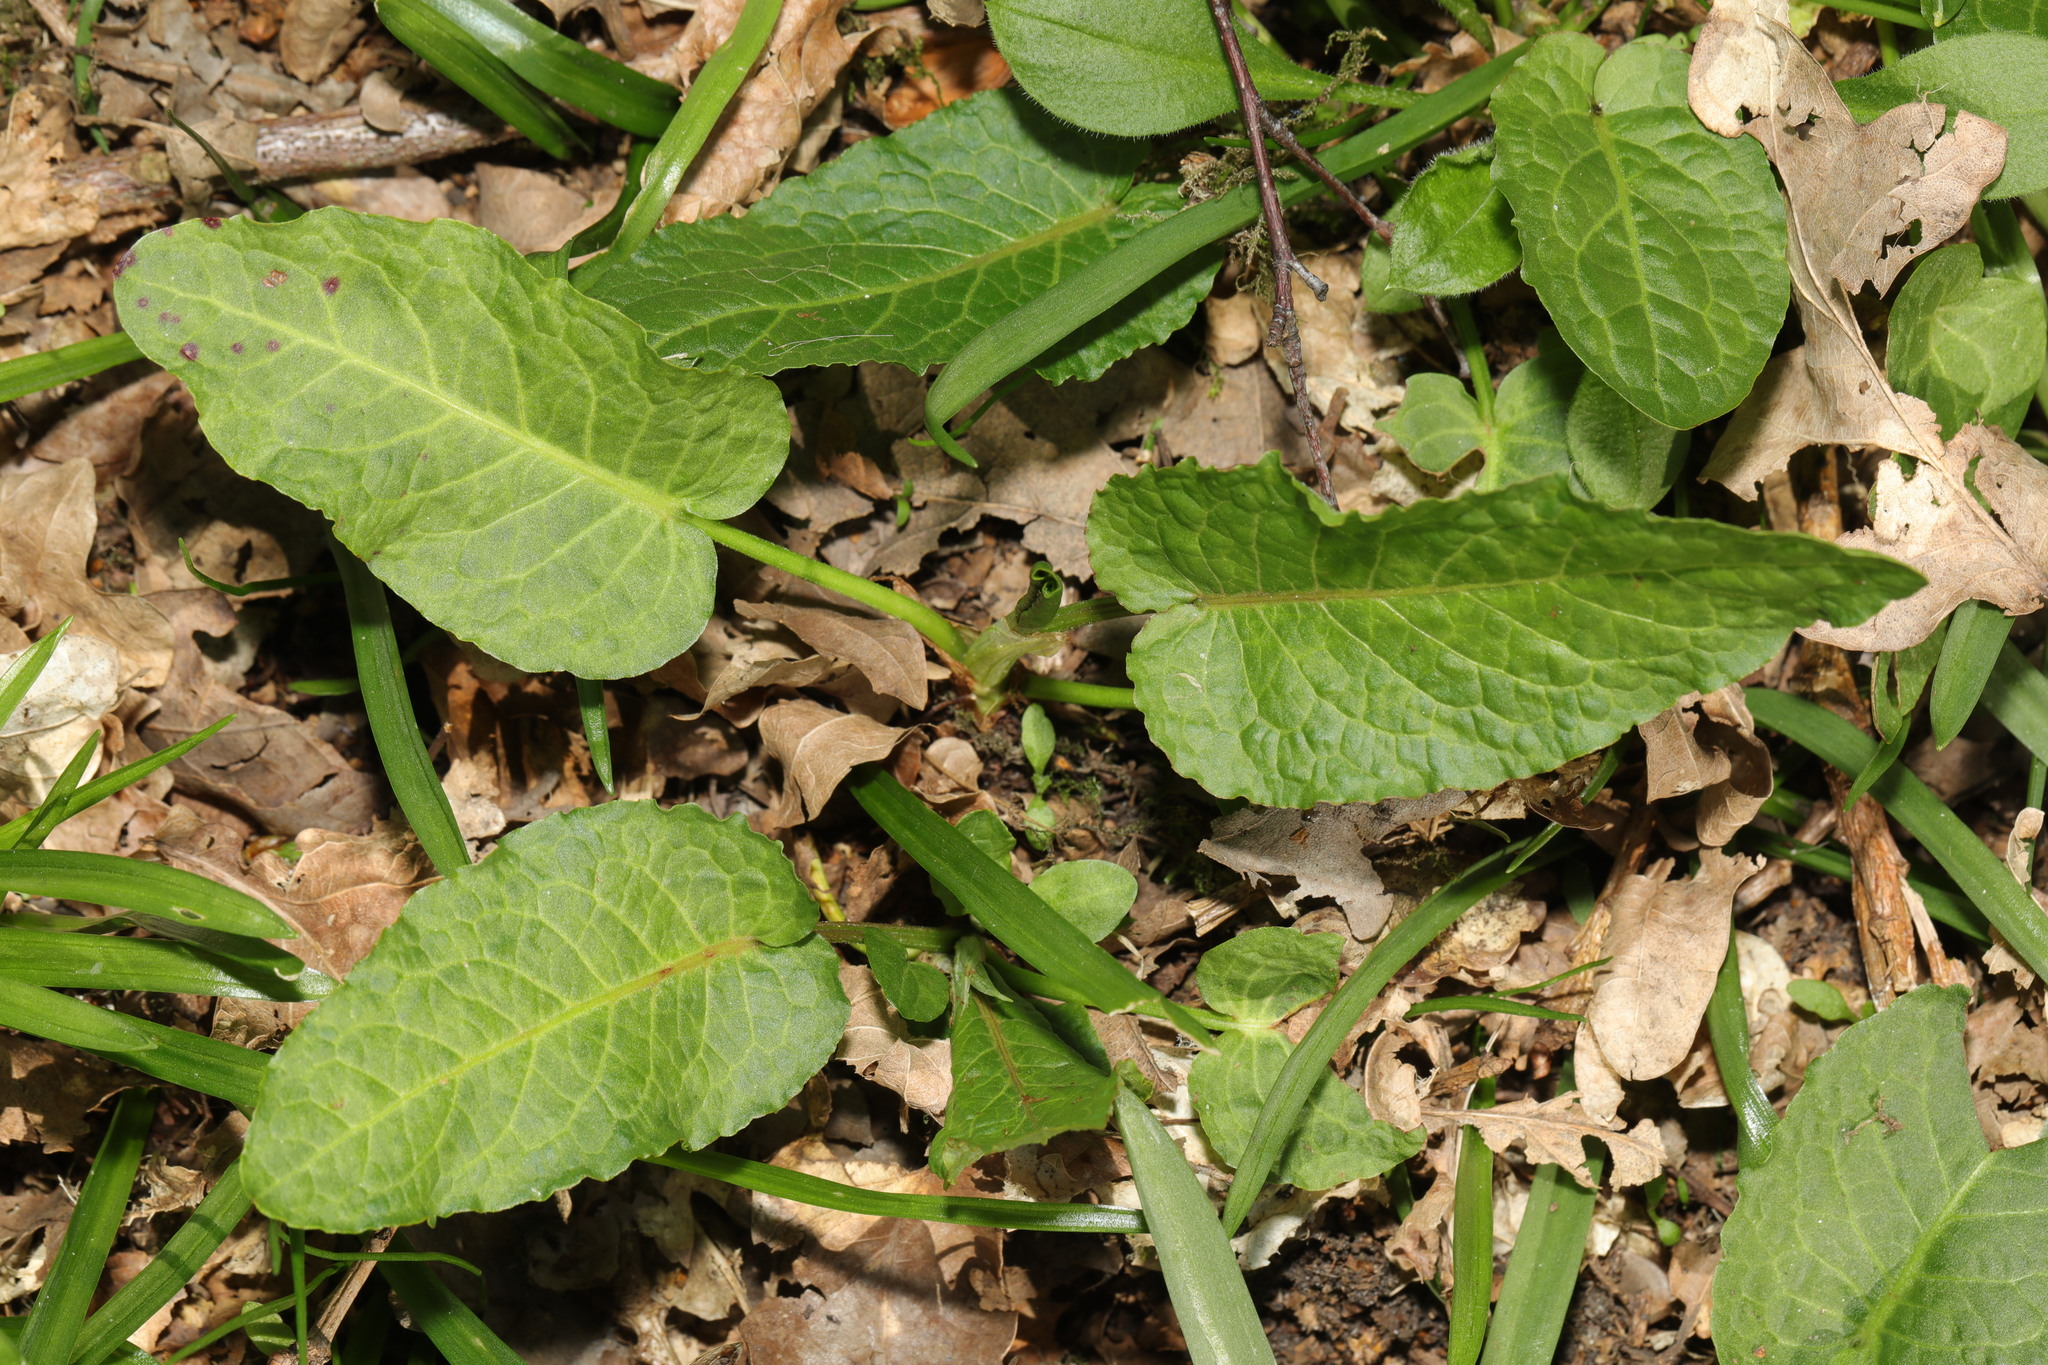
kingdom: Plantae
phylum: Tracheophyta
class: Magnoliopsida
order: Caryophyllales
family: Polygonaceae
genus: Rumex
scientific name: Rumex obtusifolius
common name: Bitter dock
